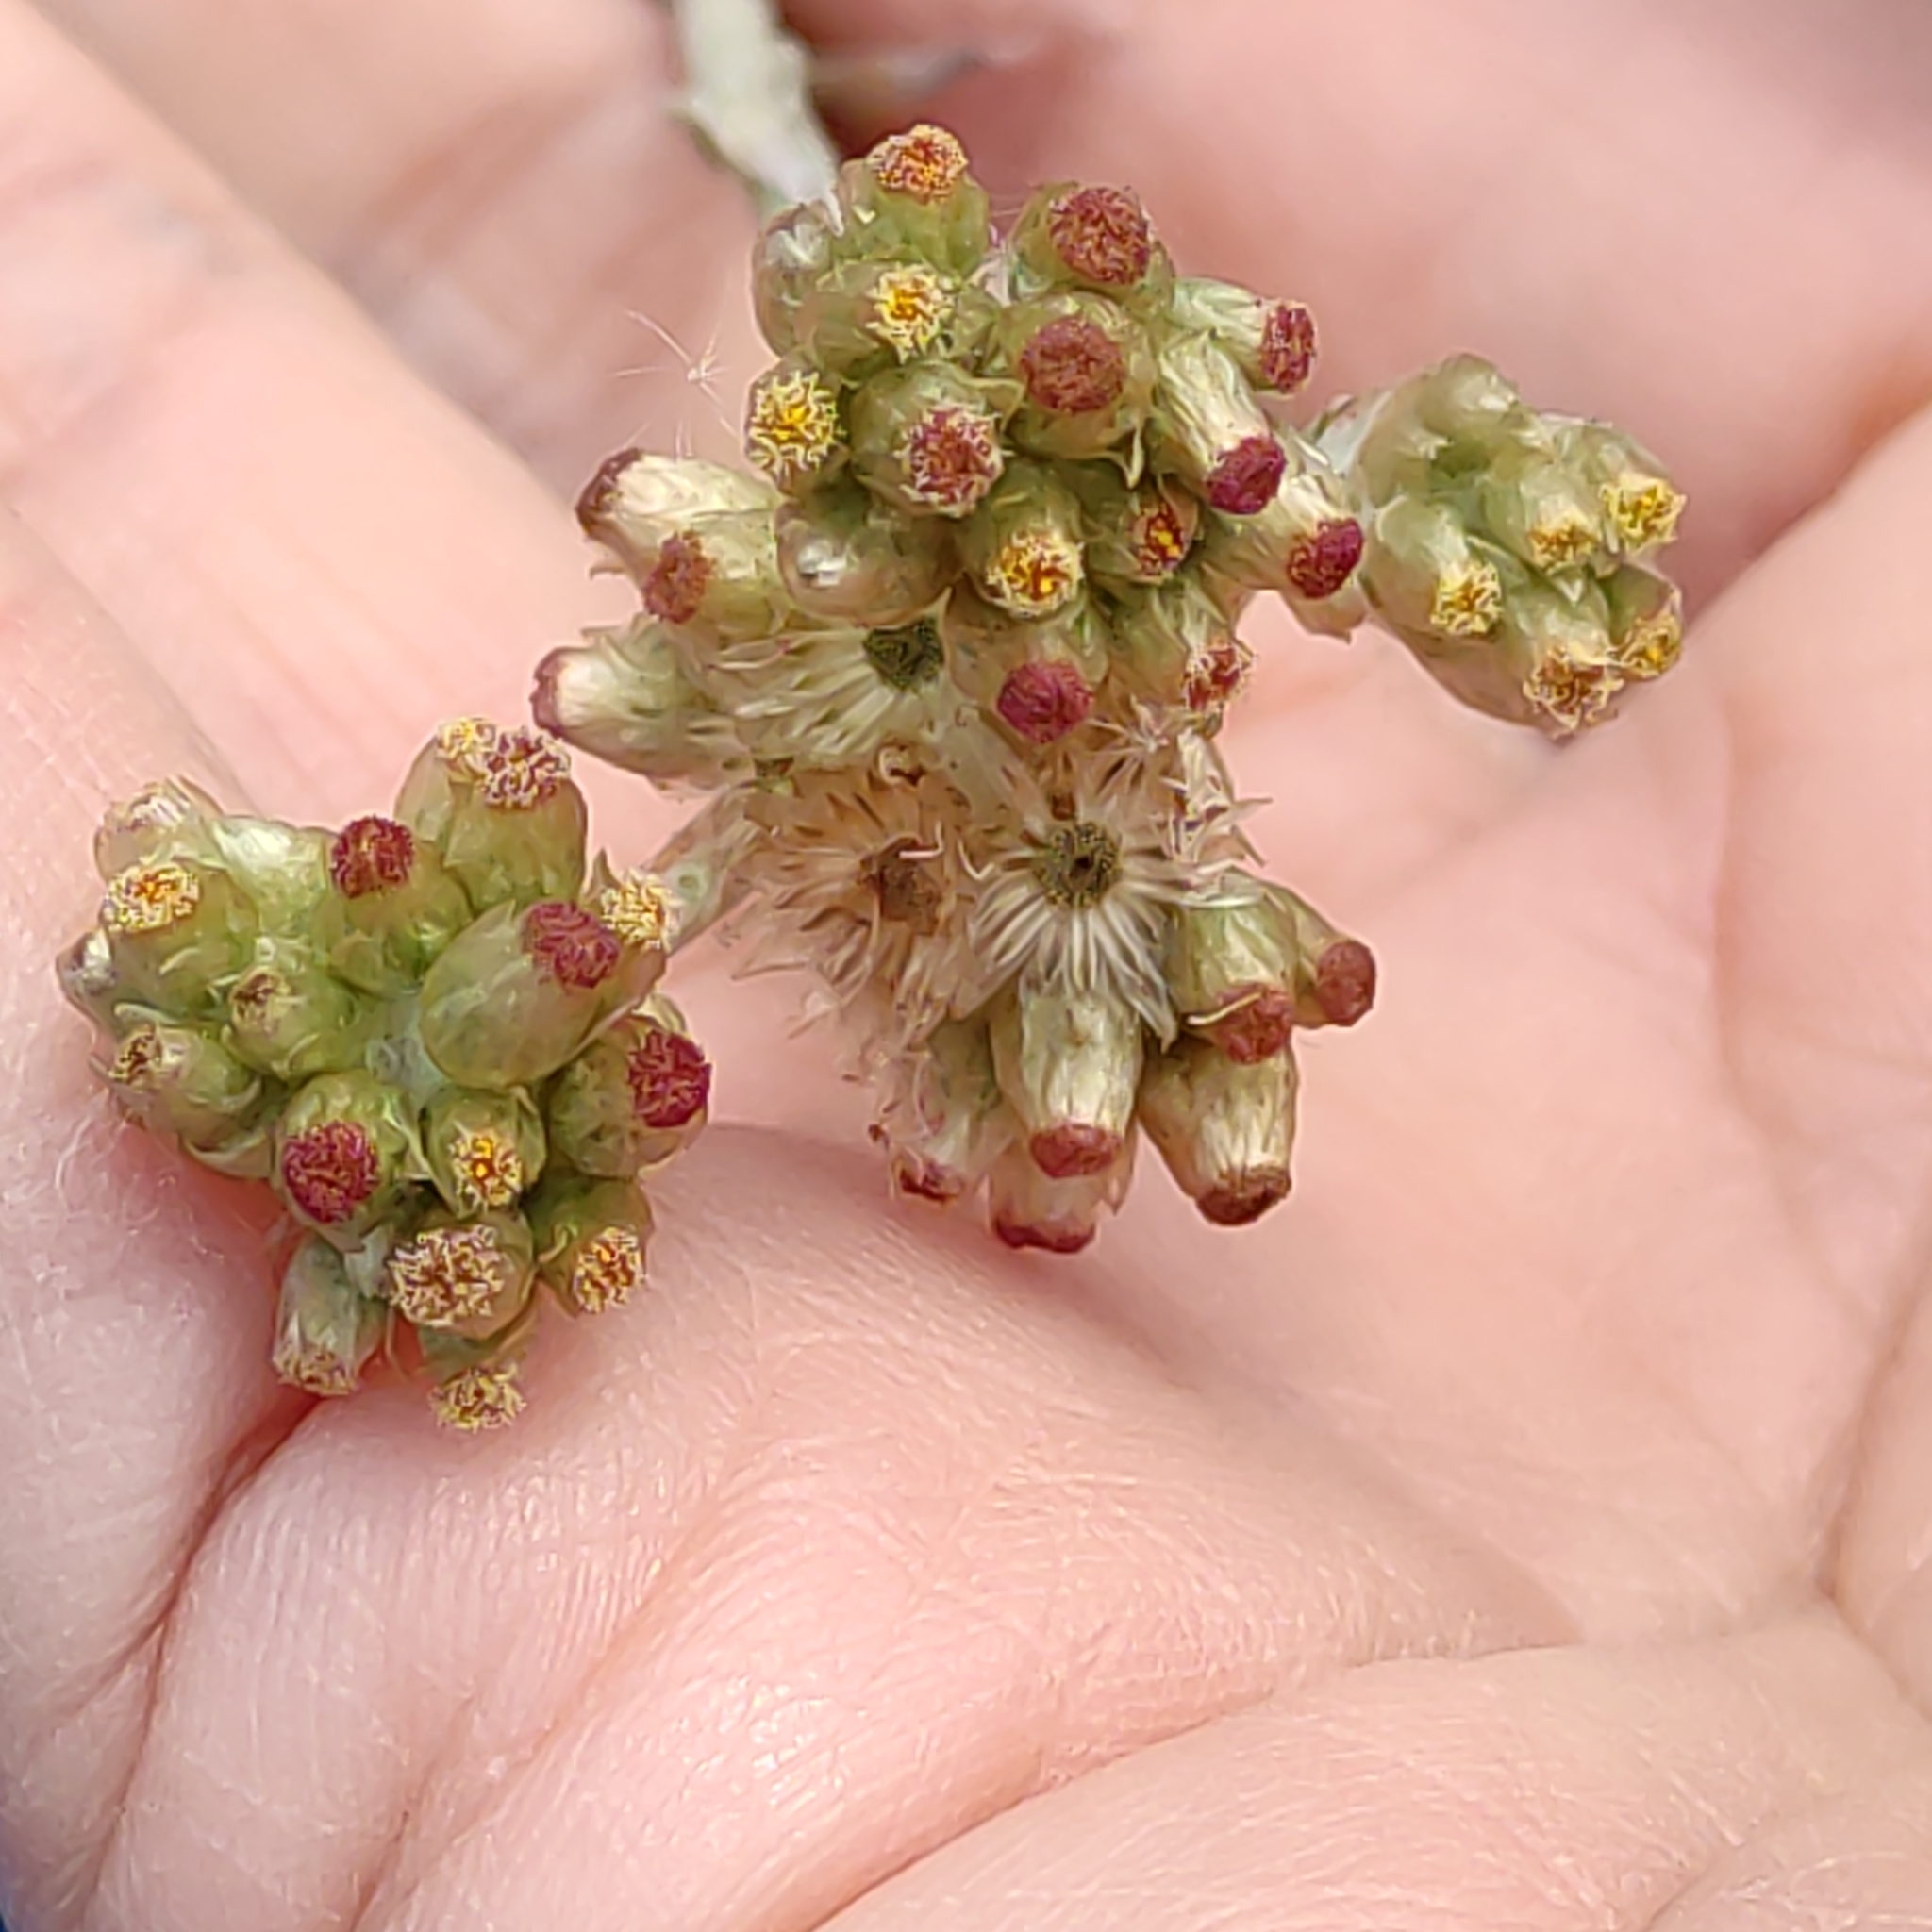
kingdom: Plantae
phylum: Tracheophyta
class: Magnoliopsida
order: Asterales
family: Asteraceae
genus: Helichrysum
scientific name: Helichrysum luteoalbum
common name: Daisy
